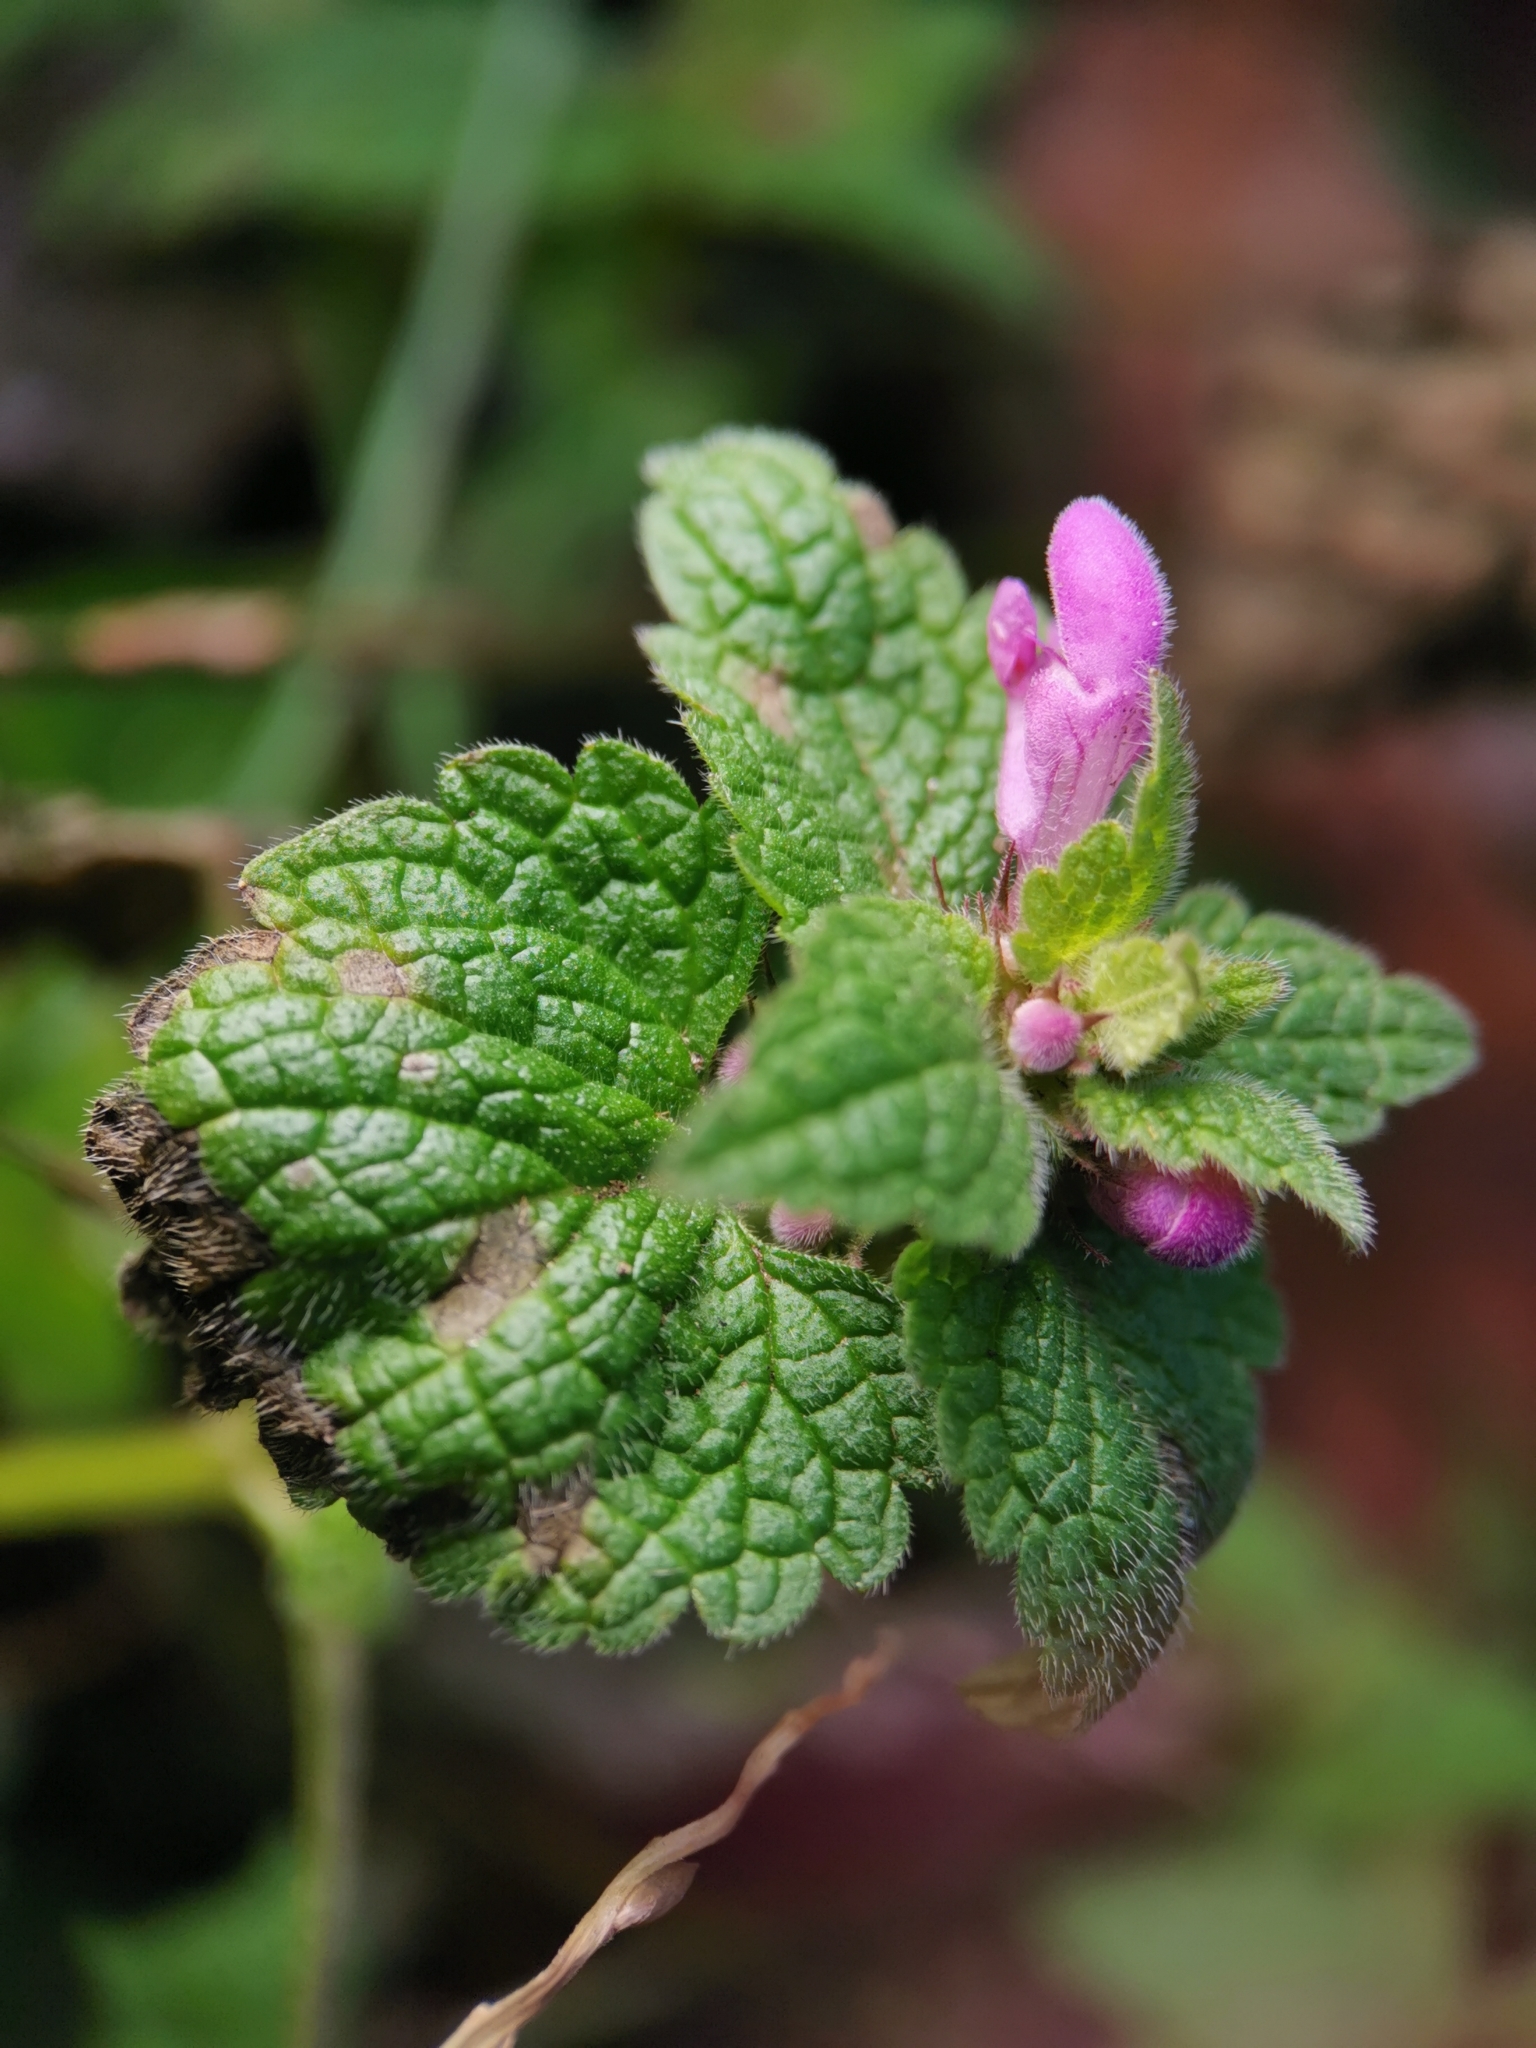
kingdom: Plantae
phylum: Tracheophyta
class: Magnoliopsida
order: Lamiales
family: Lamiaceae
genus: Lamium
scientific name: Lamium purpureum
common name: Red dead-nettle
